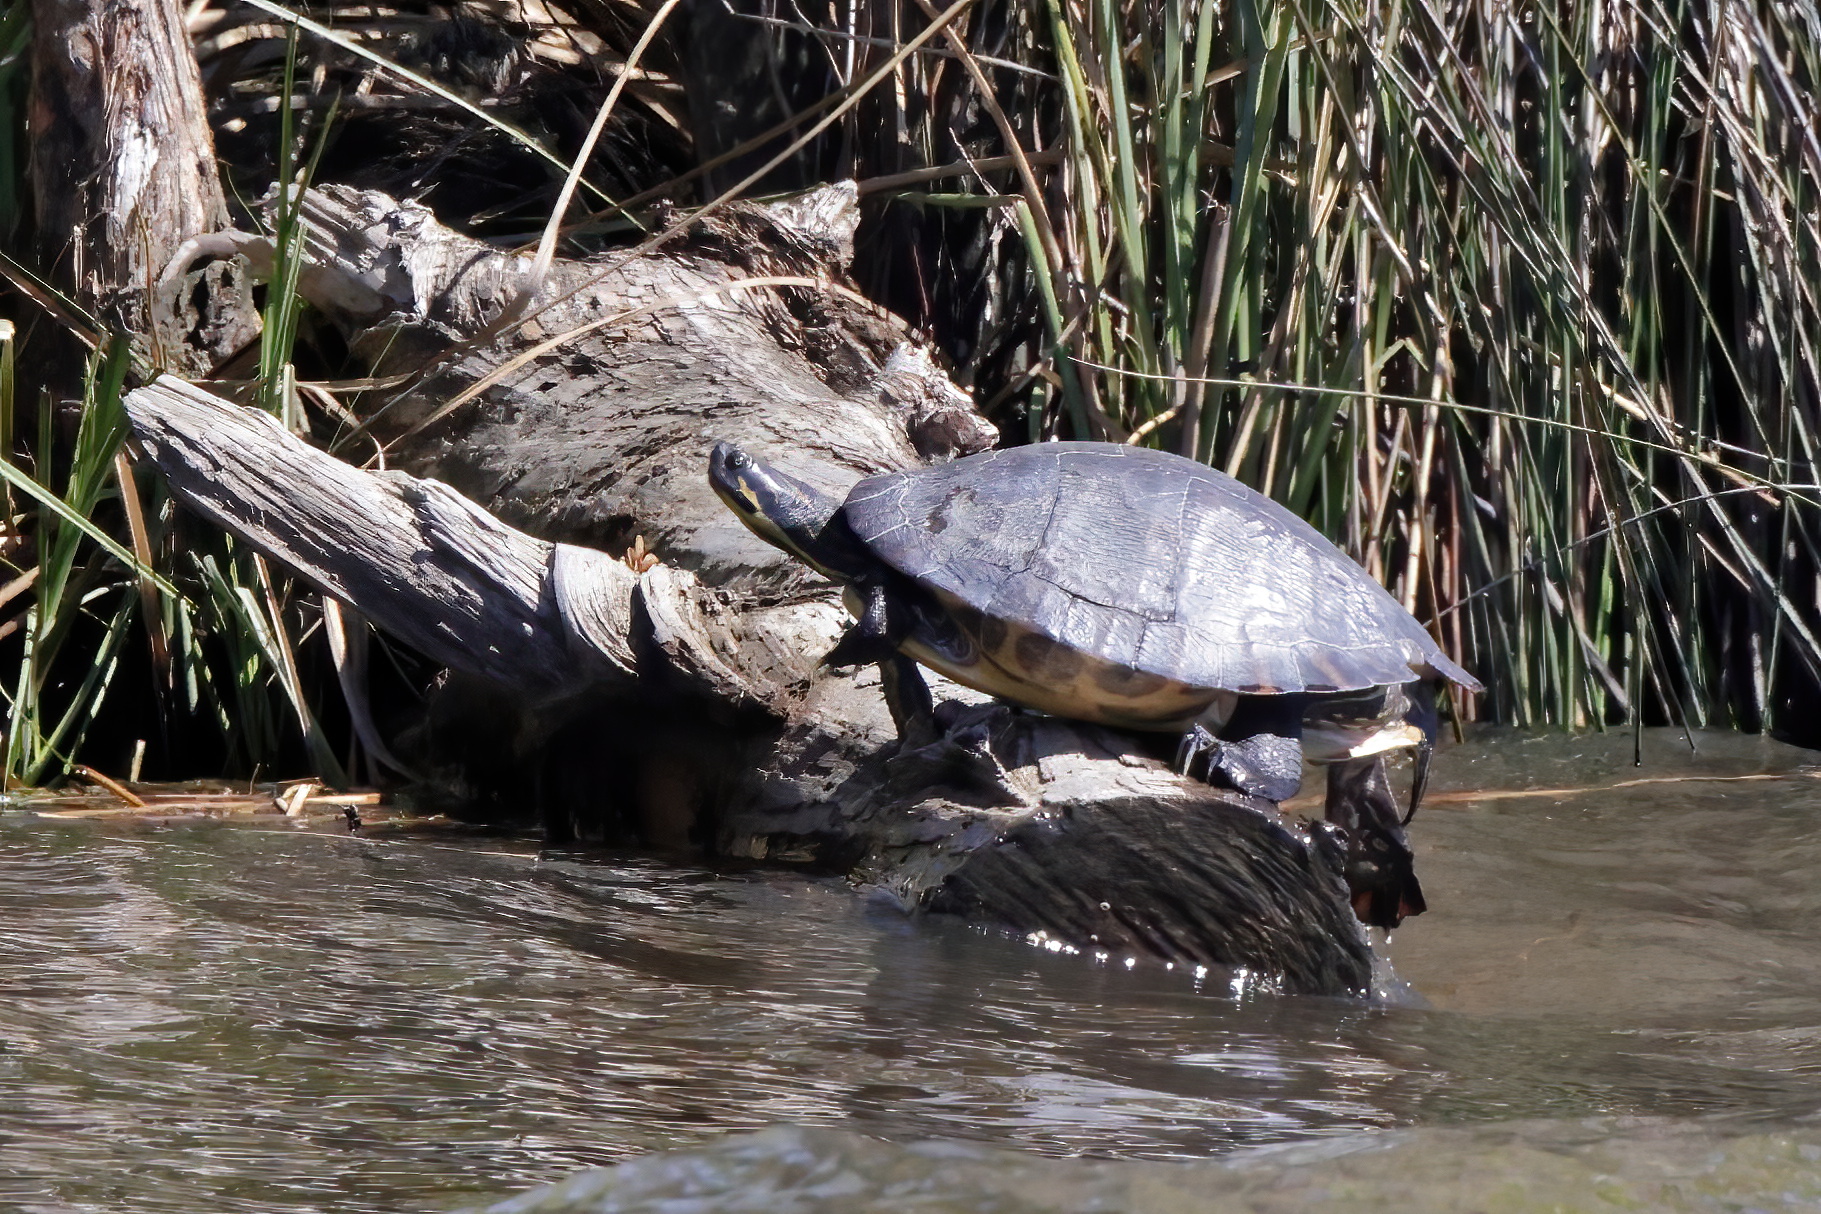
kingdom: Animalia
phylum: Chordata
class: Testudines
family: Emydidae
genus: Pseudemys
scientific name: Pseudemys concinna
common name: Eastern river cooter
